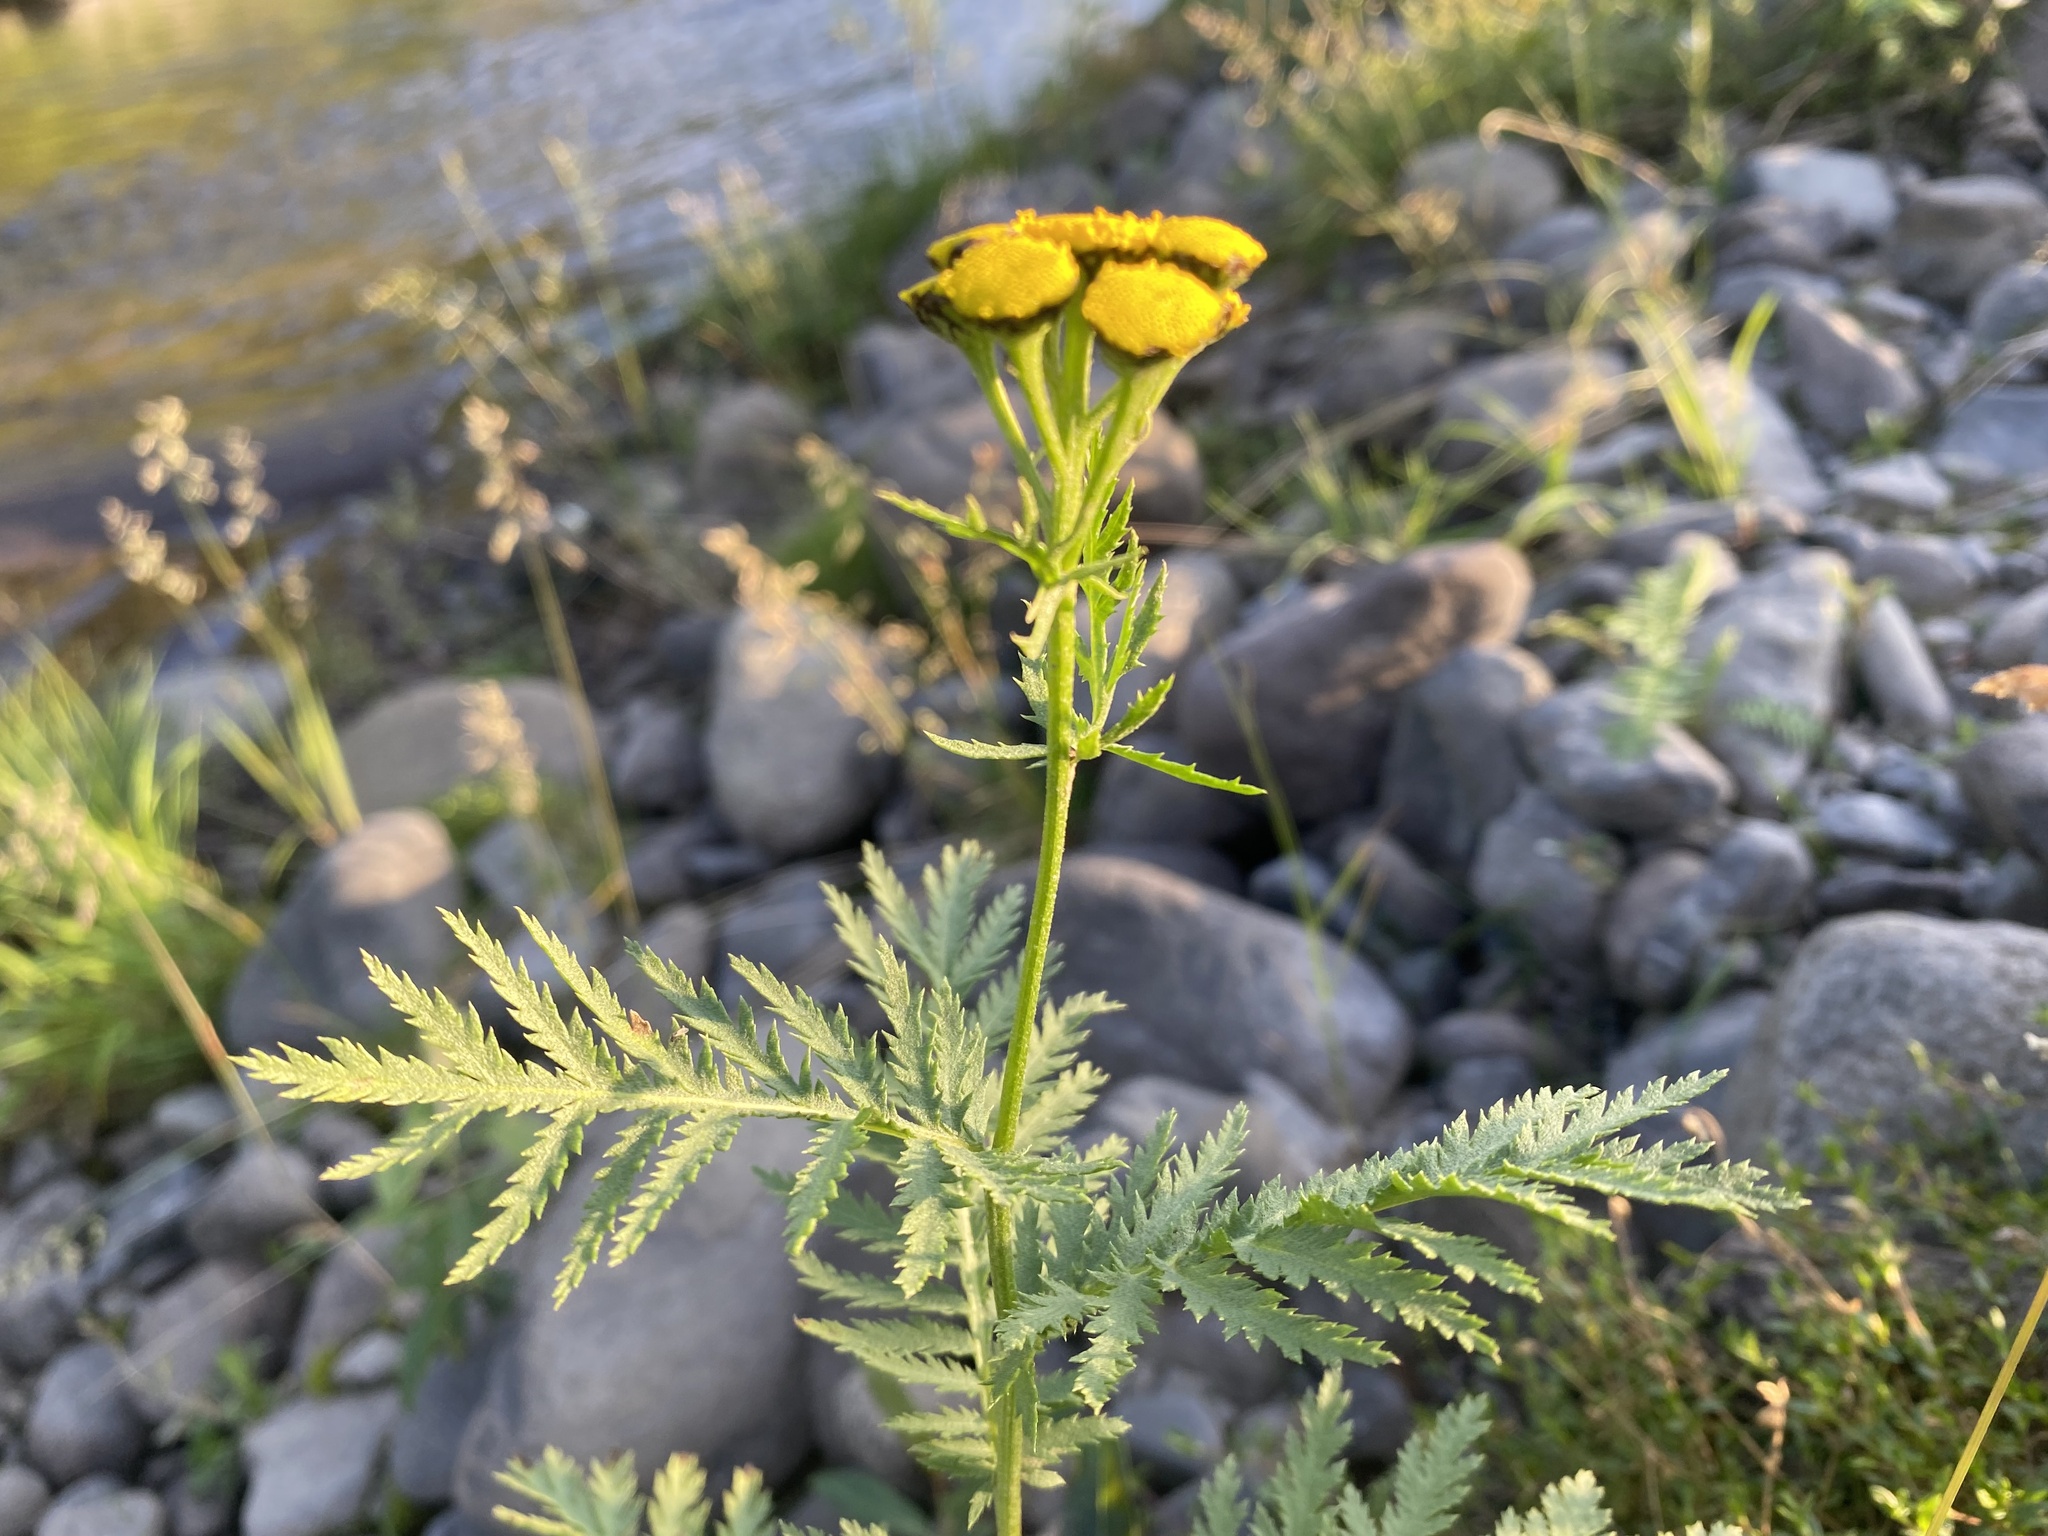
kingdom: Plantae
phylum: Tracheophyta
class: Magnoliopsida
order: Asterales
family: Asteraceae
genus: Tanacetum
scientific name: Tanacetum vulgare
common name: Common tansy
